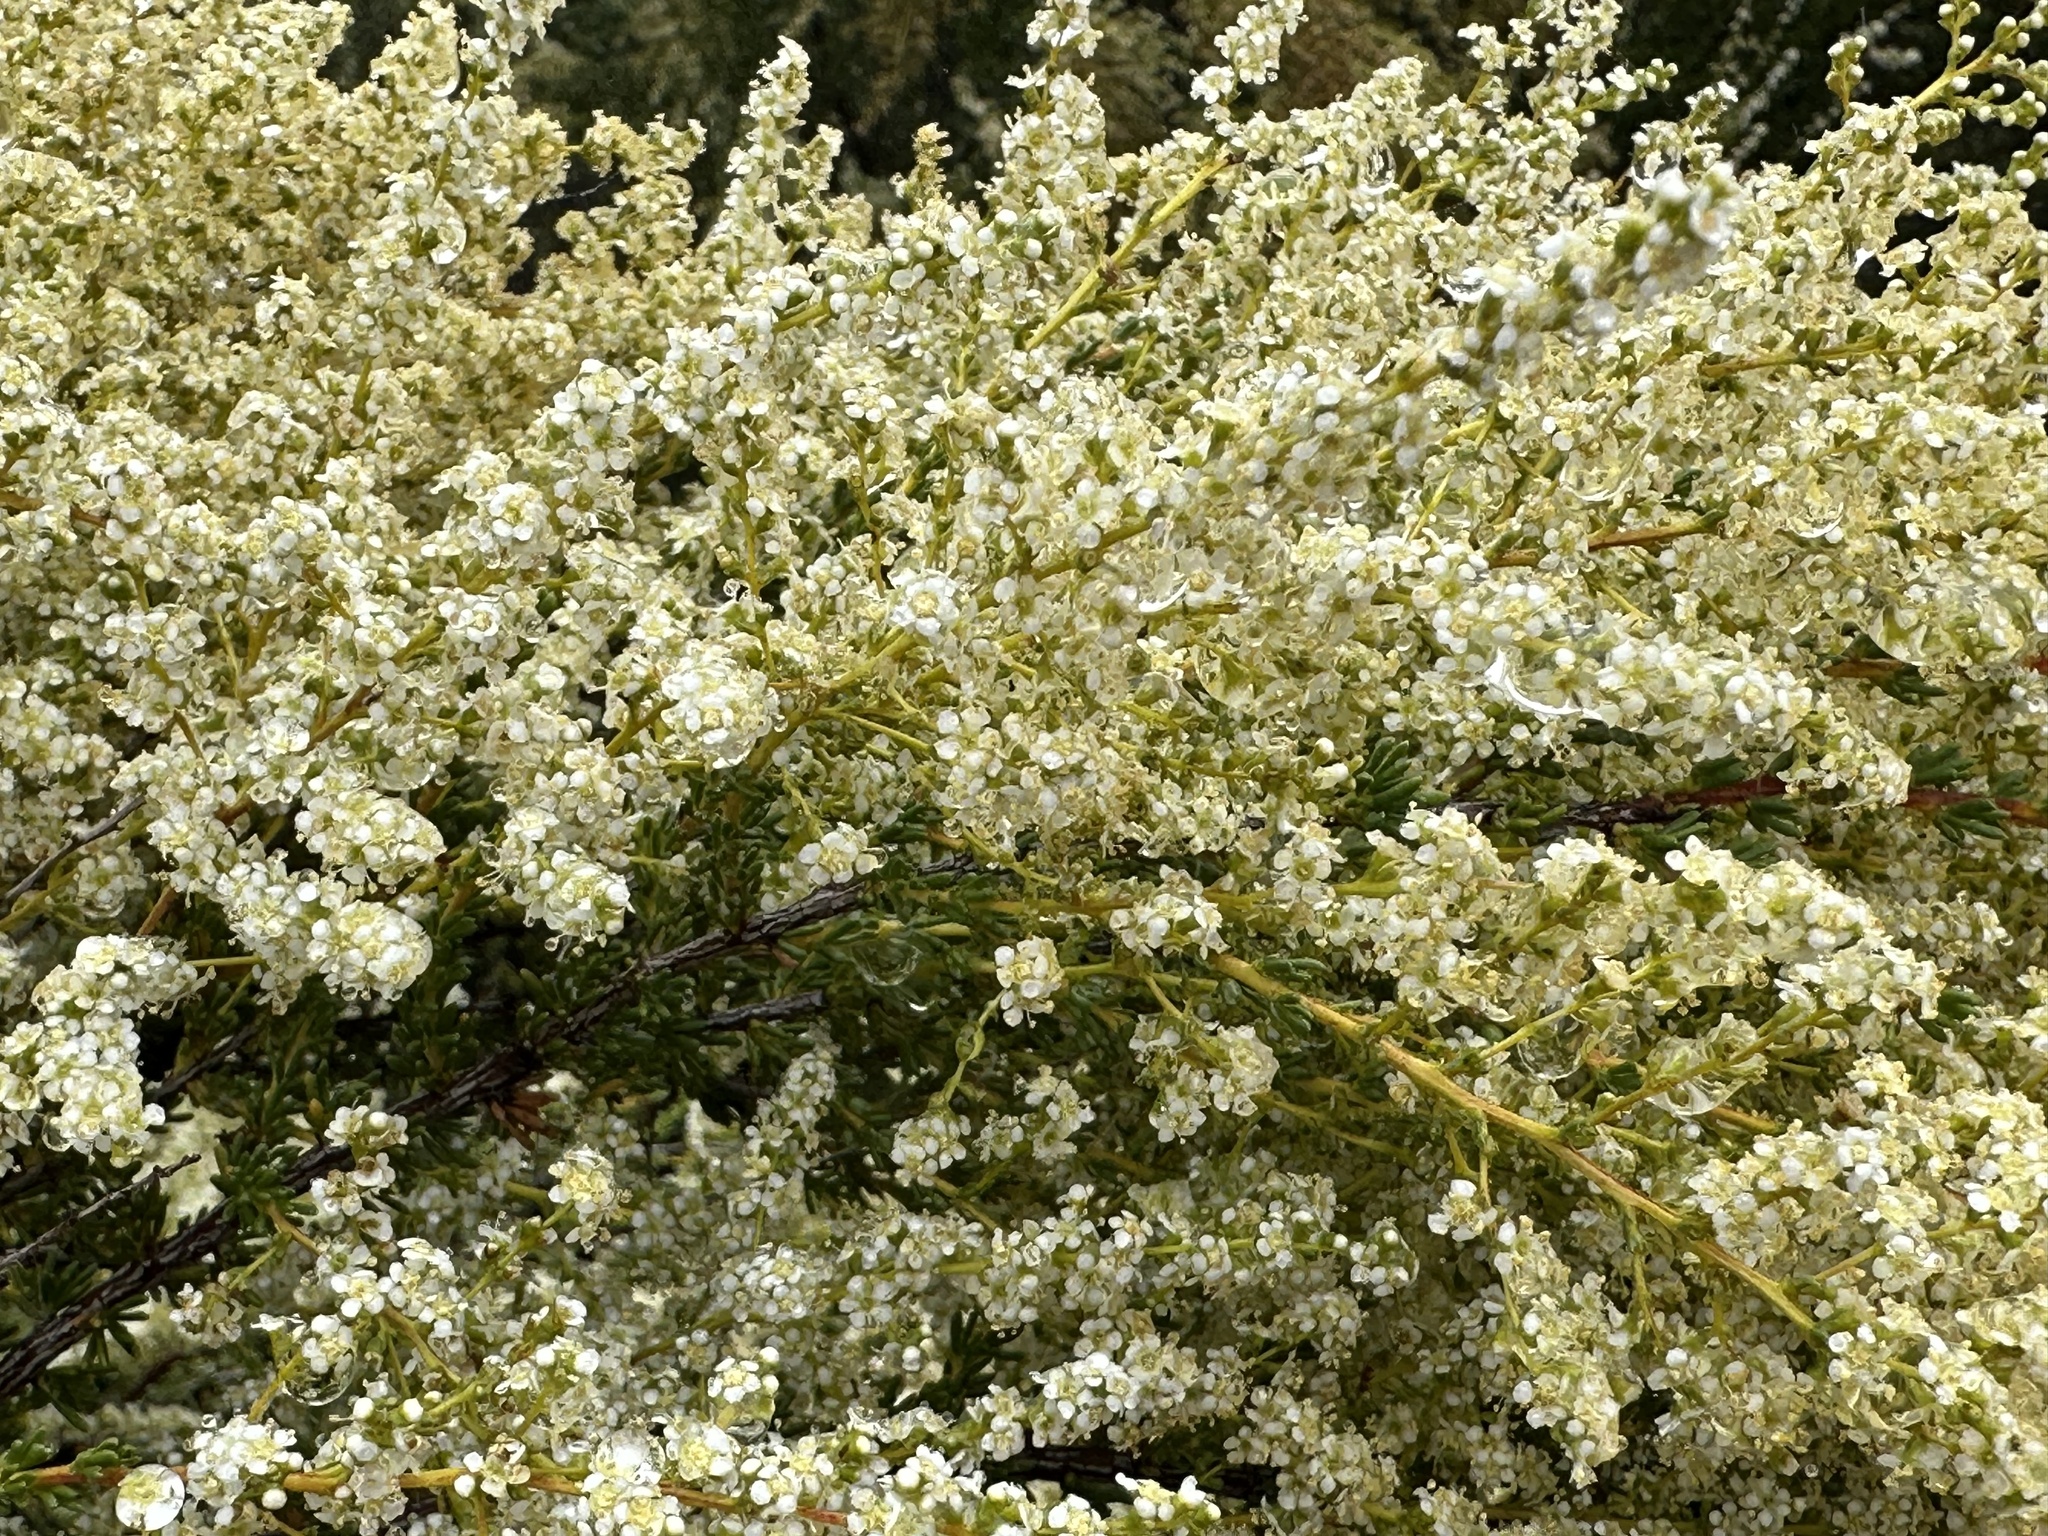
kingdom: Plantae
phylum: Tracheophyta
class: Magnoliopsida
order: Rosales
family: Rosaceae
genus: Adenostoma
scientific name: Adenostoma fasciculatum
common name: Chamise
